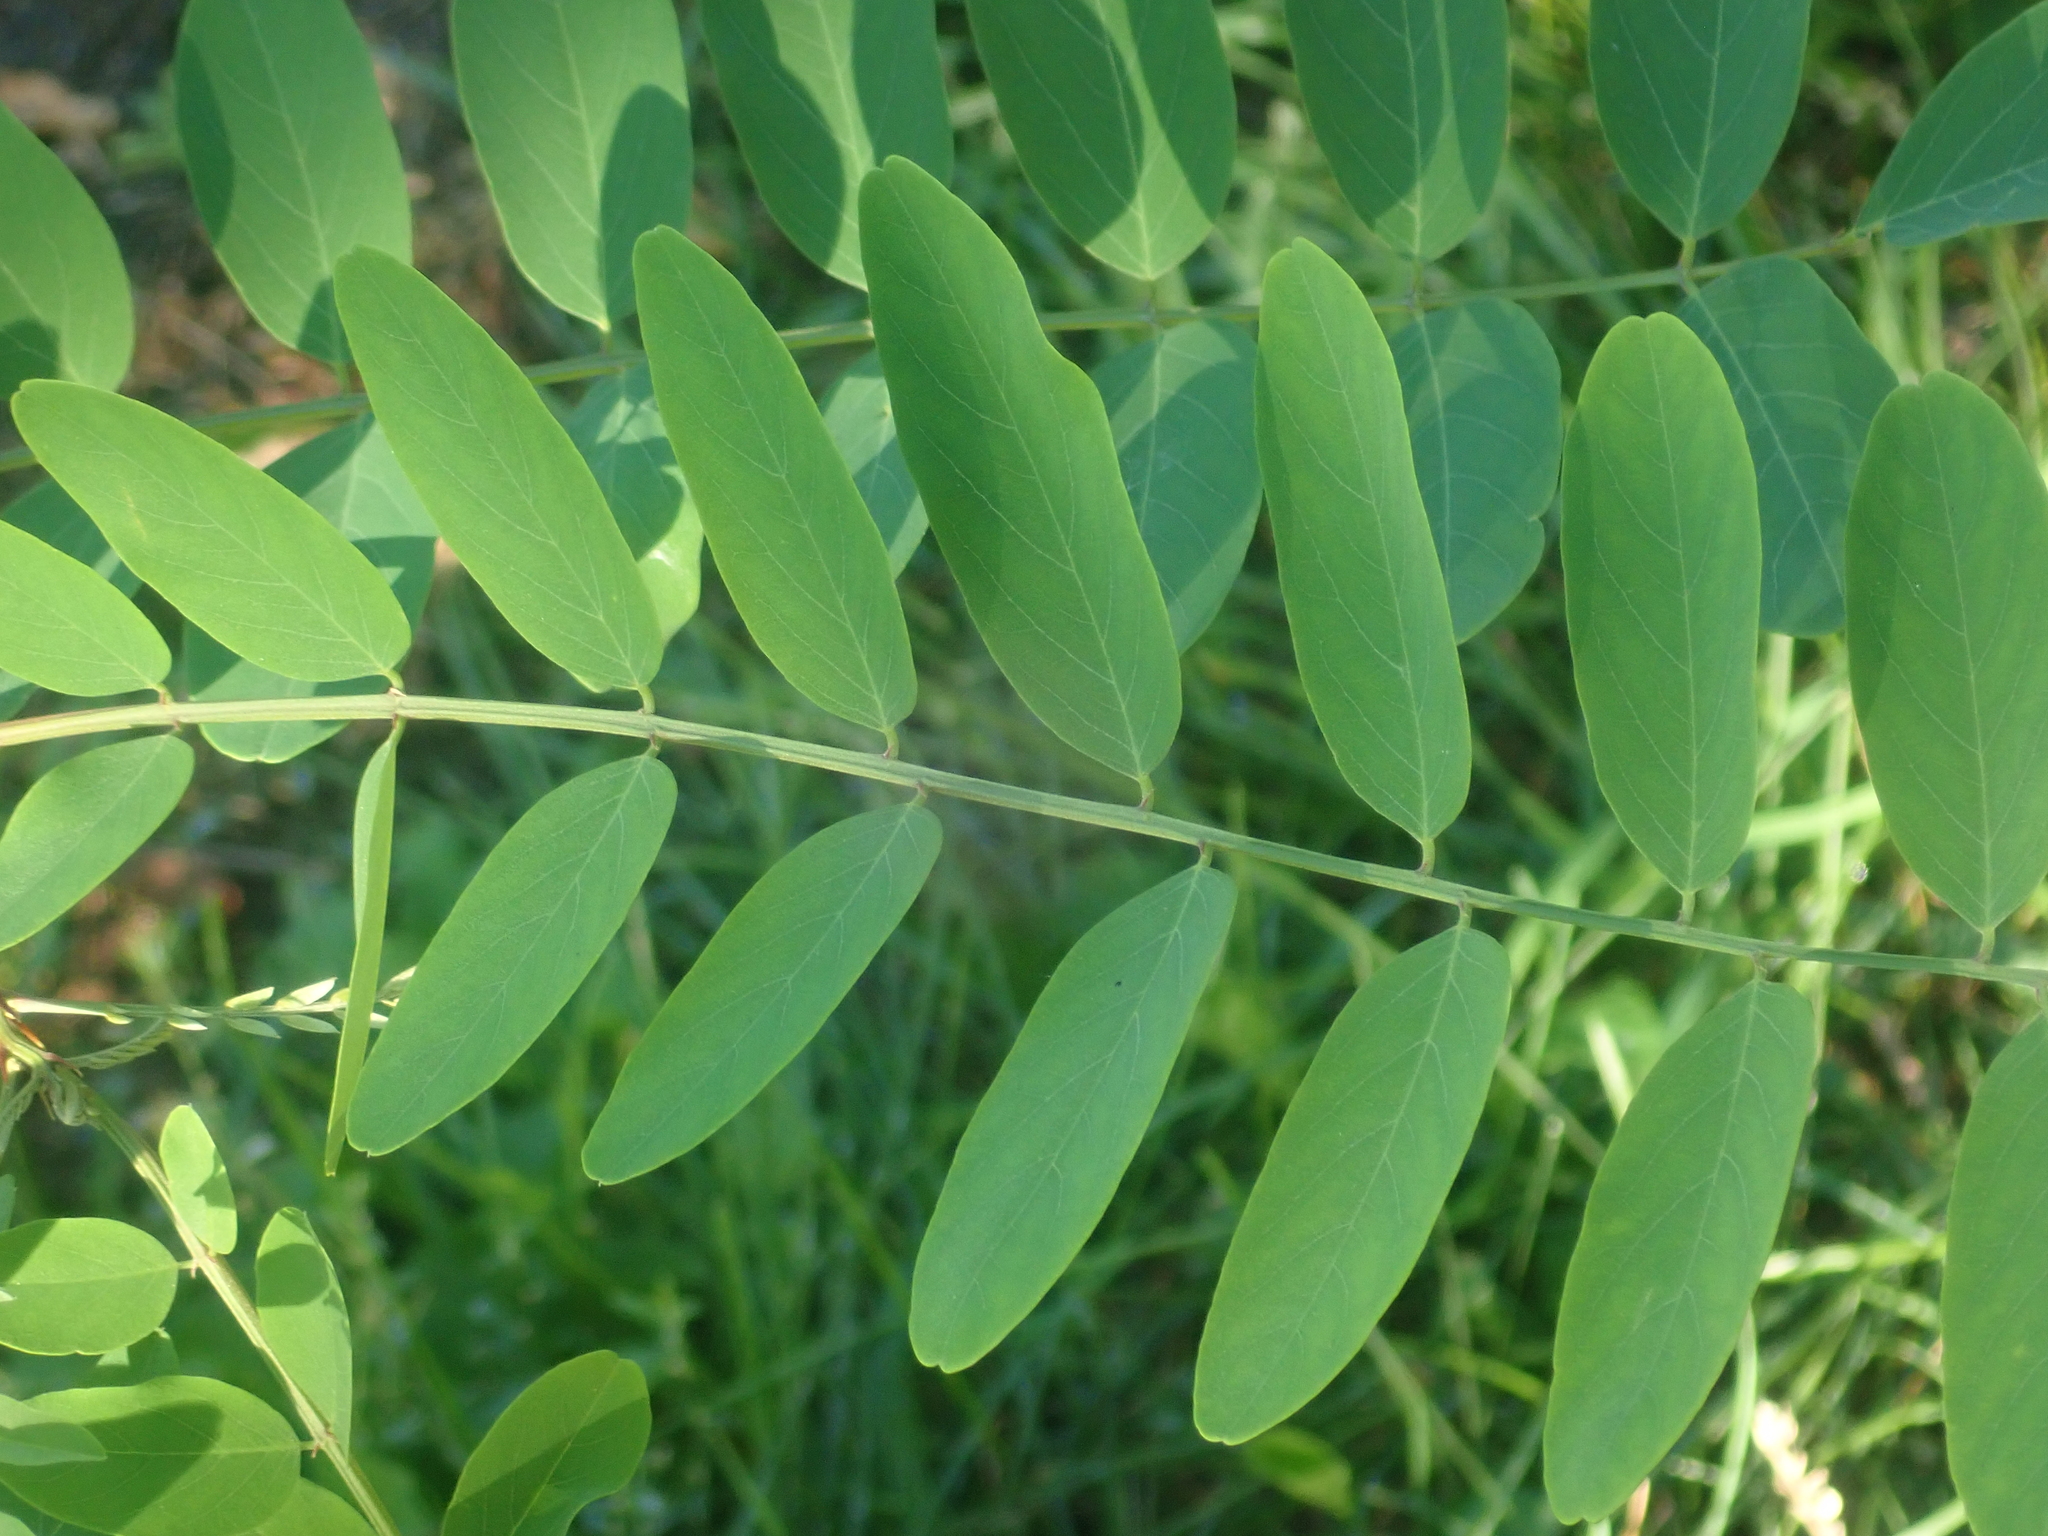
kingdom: Plantae
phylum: Tracheophyta
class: Magnoliopsida
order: Fabales
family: Fabaceae
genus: Robinia
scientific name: Robinia pseudoacacia
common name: Black locust
